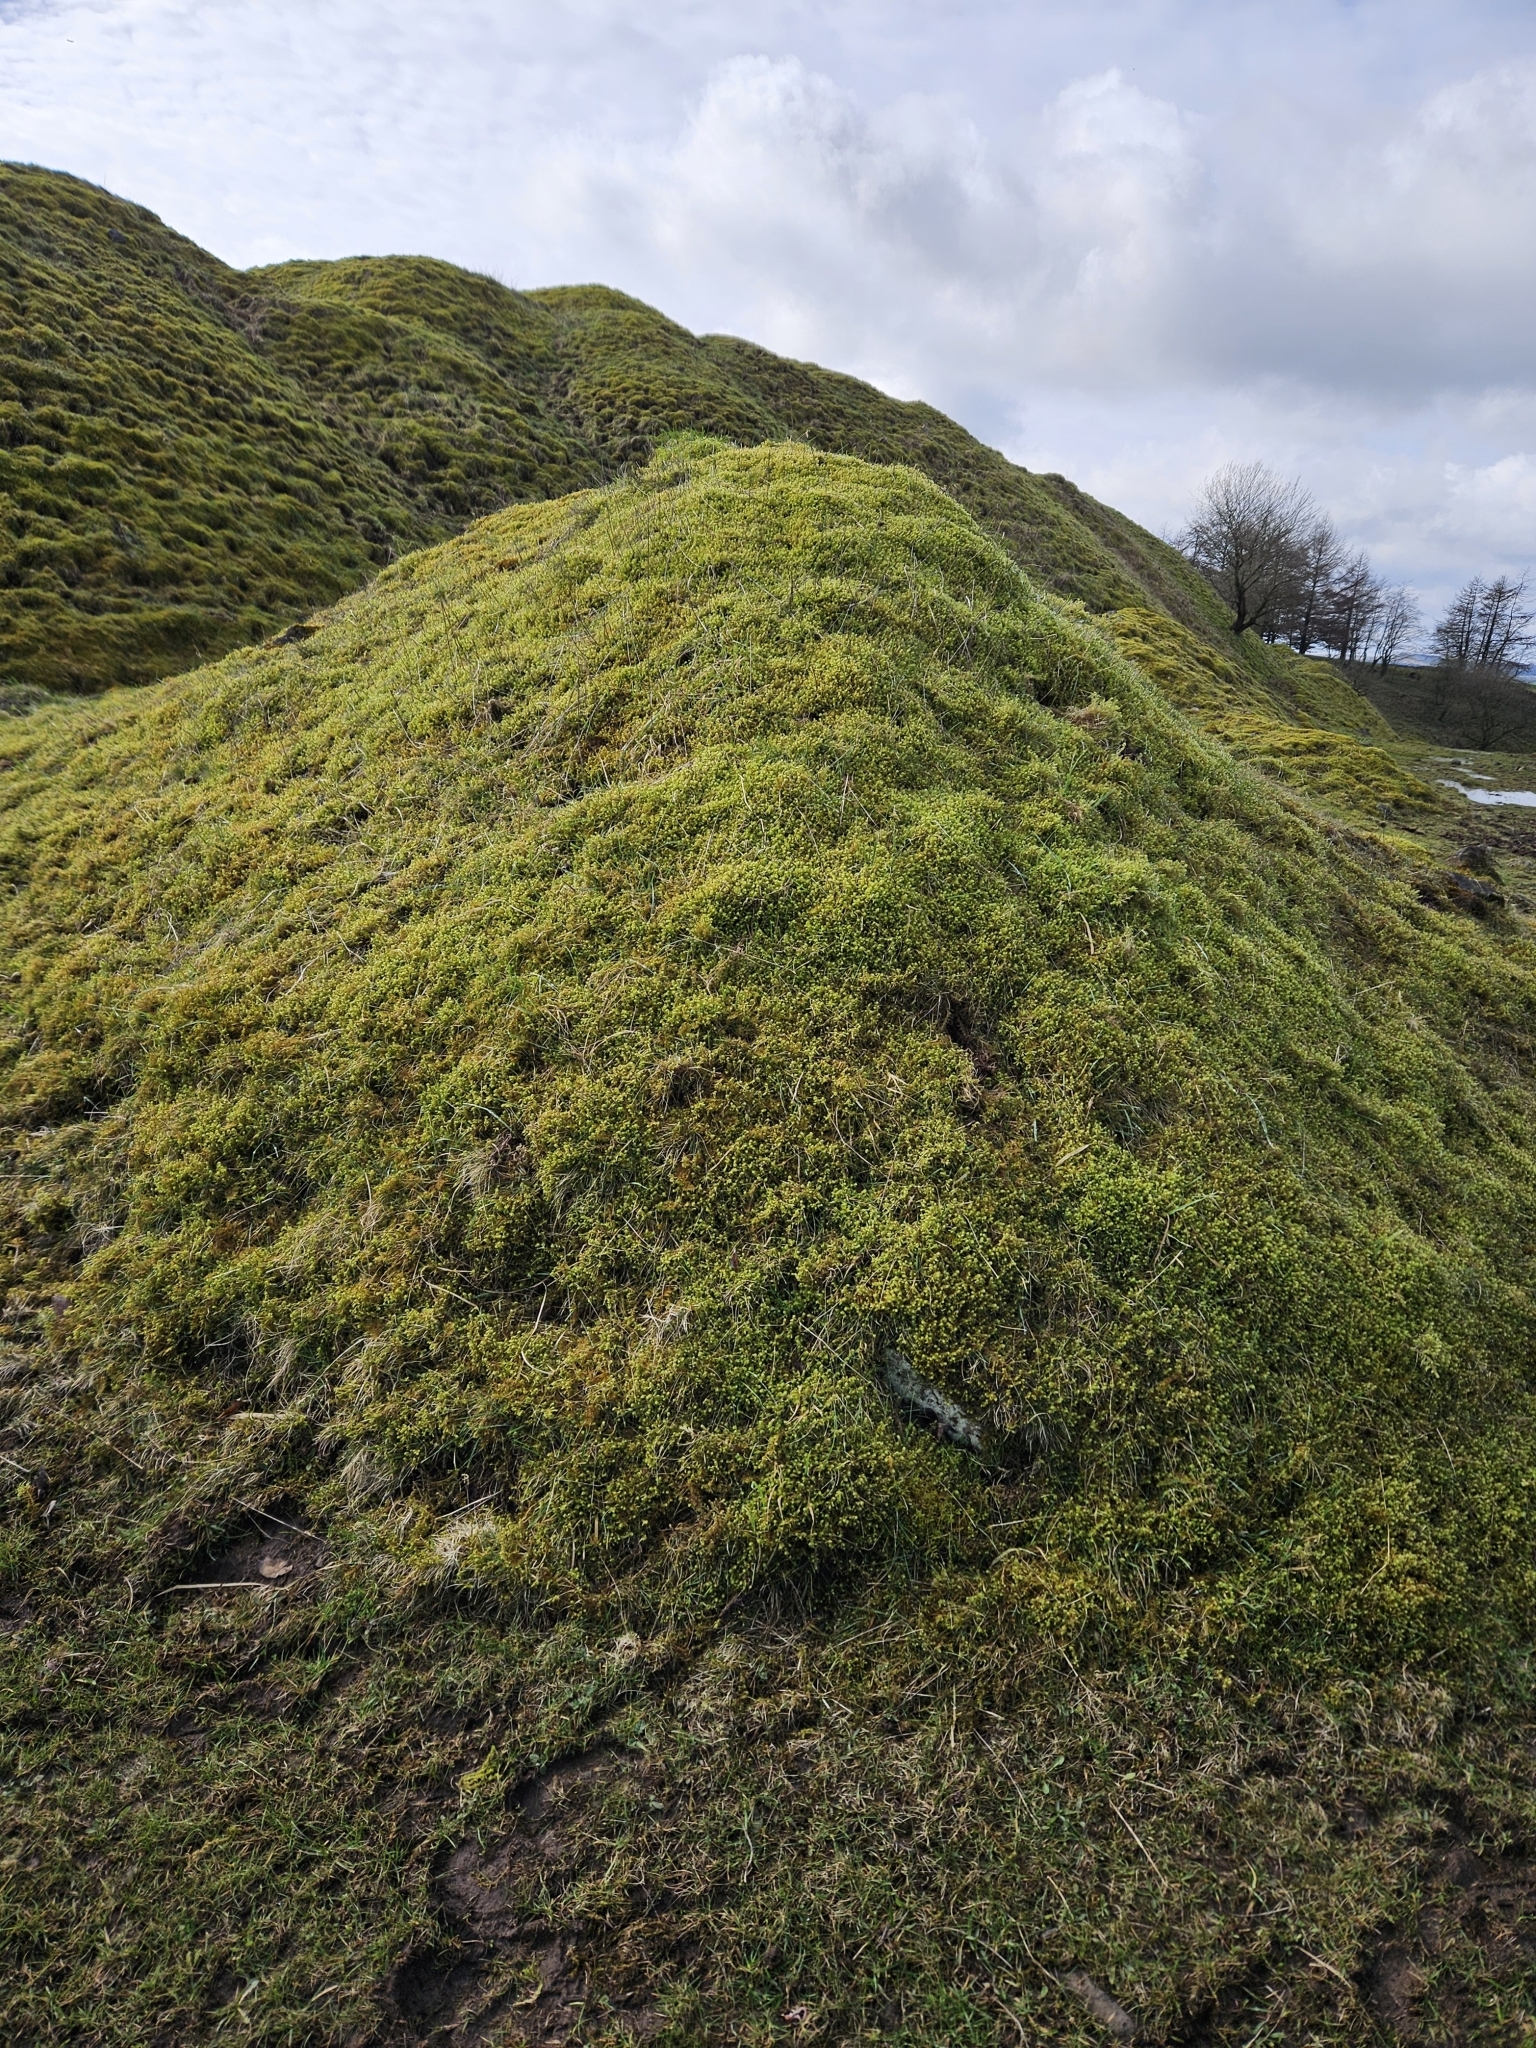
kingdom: Plantae
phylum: Bryophyta
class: Bryopsida
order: Hypnales
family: Hylocomiaceae
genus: Hylocomiadelphus
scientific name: Hylocomiadelphus triquetrus
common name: Rough goose neck moss
